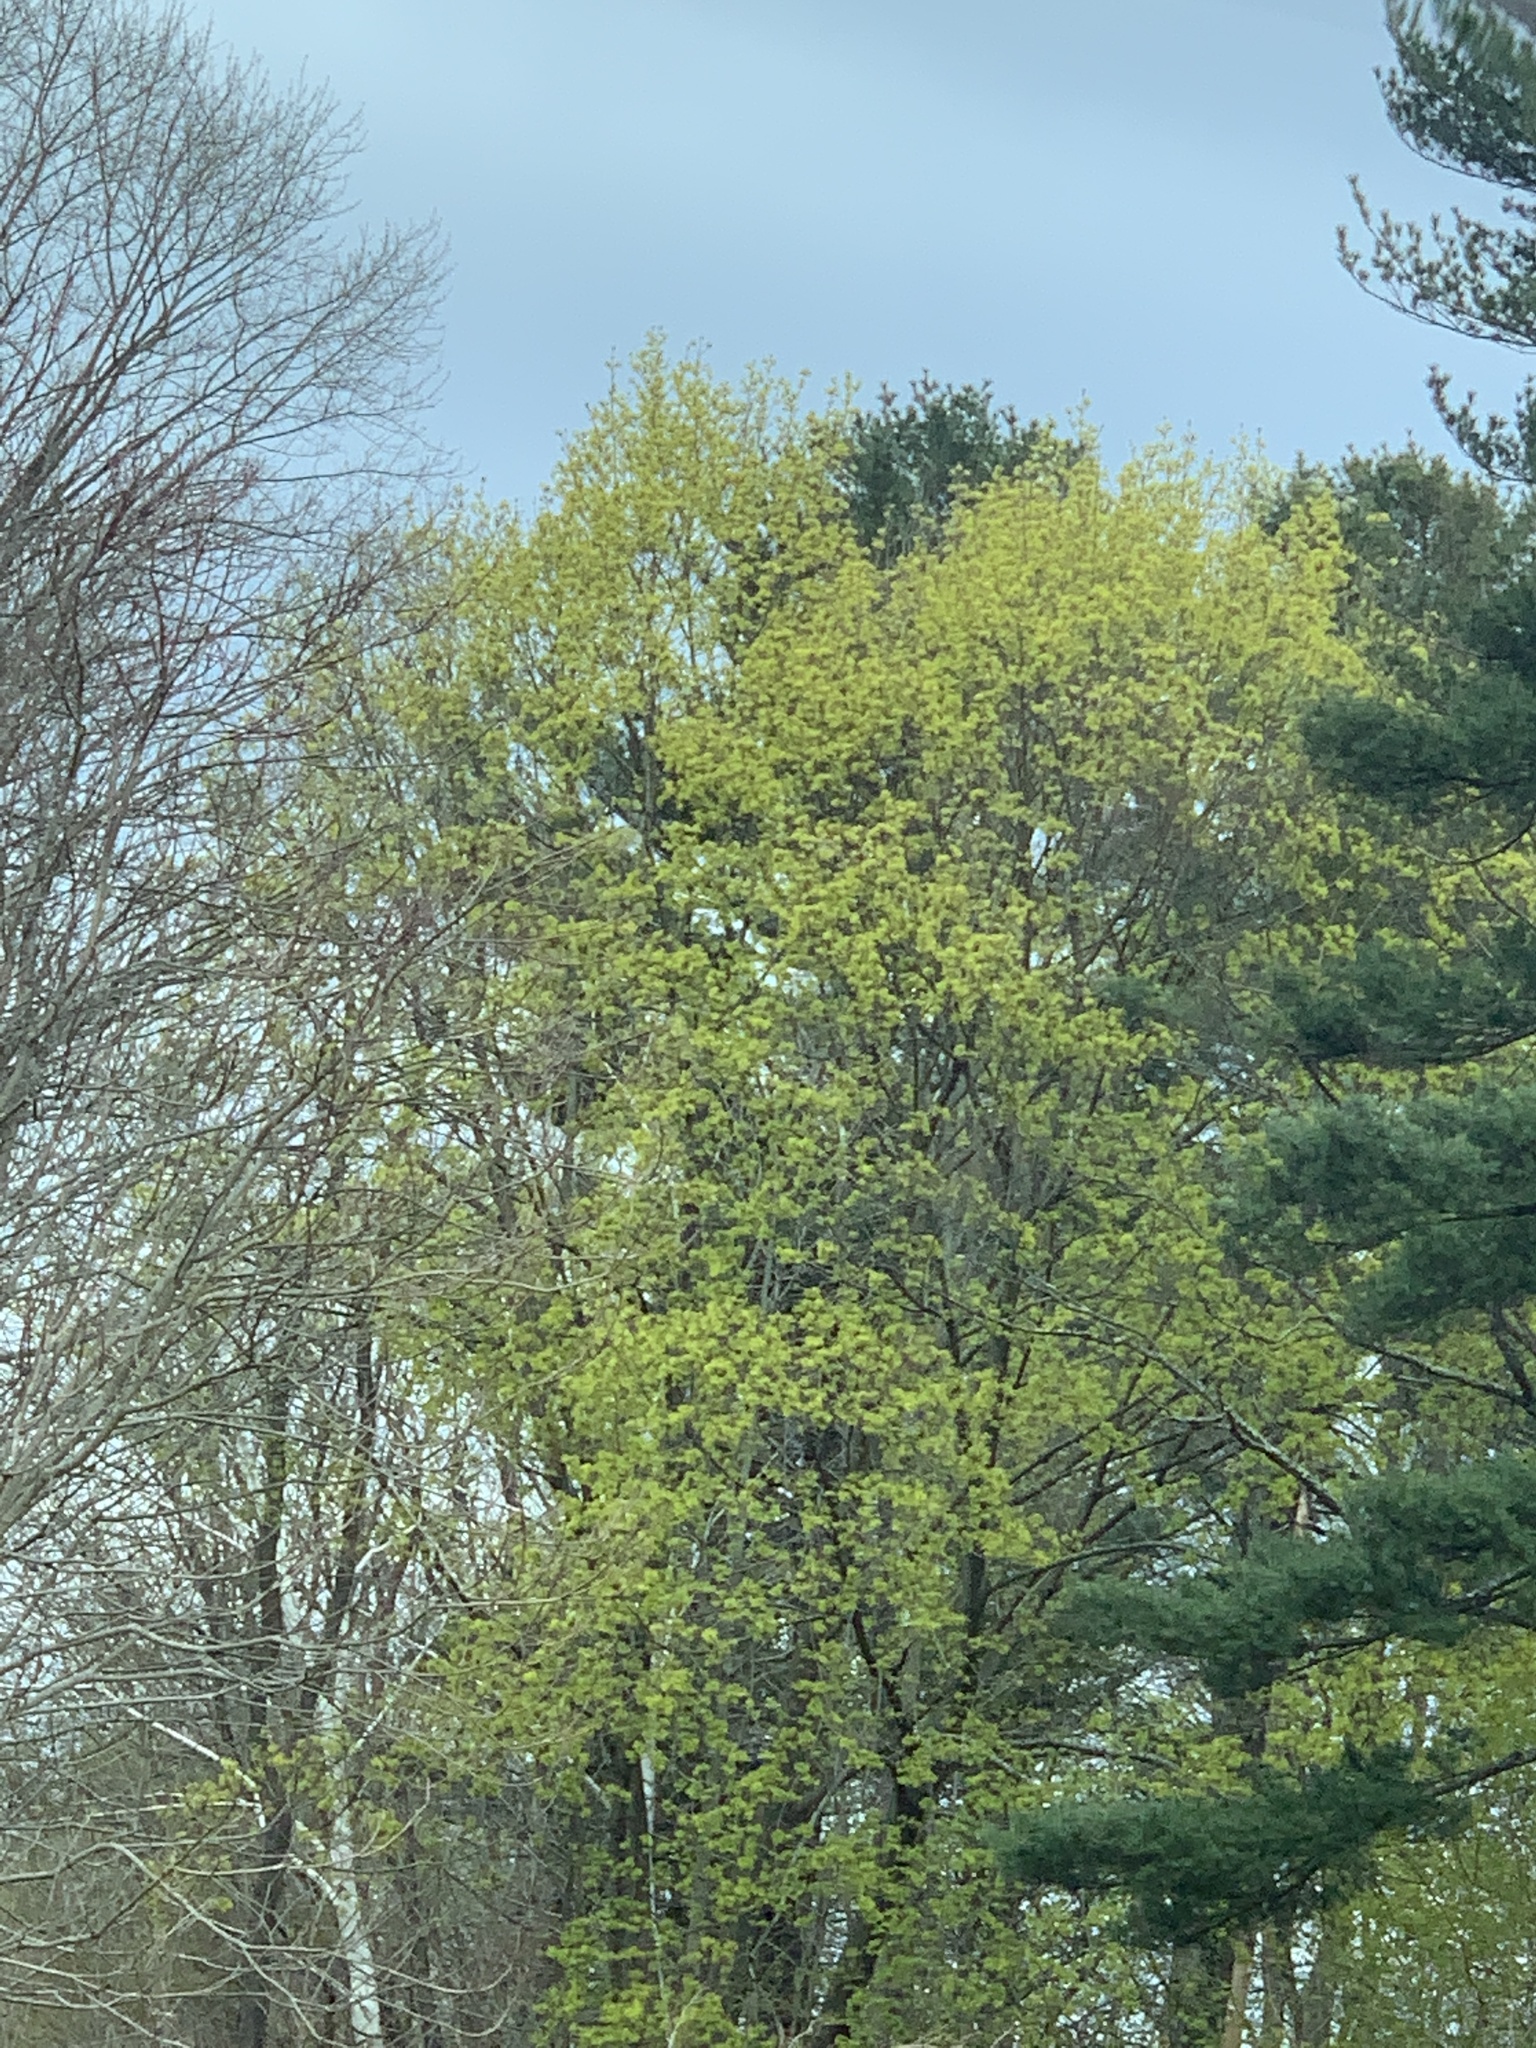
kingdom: Plantae
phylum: Tracheophyta
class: Magnoliopsida
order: Sapindales
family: Sapindaceae
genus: Acer
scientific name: Acer platanoides
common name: Norway maple
